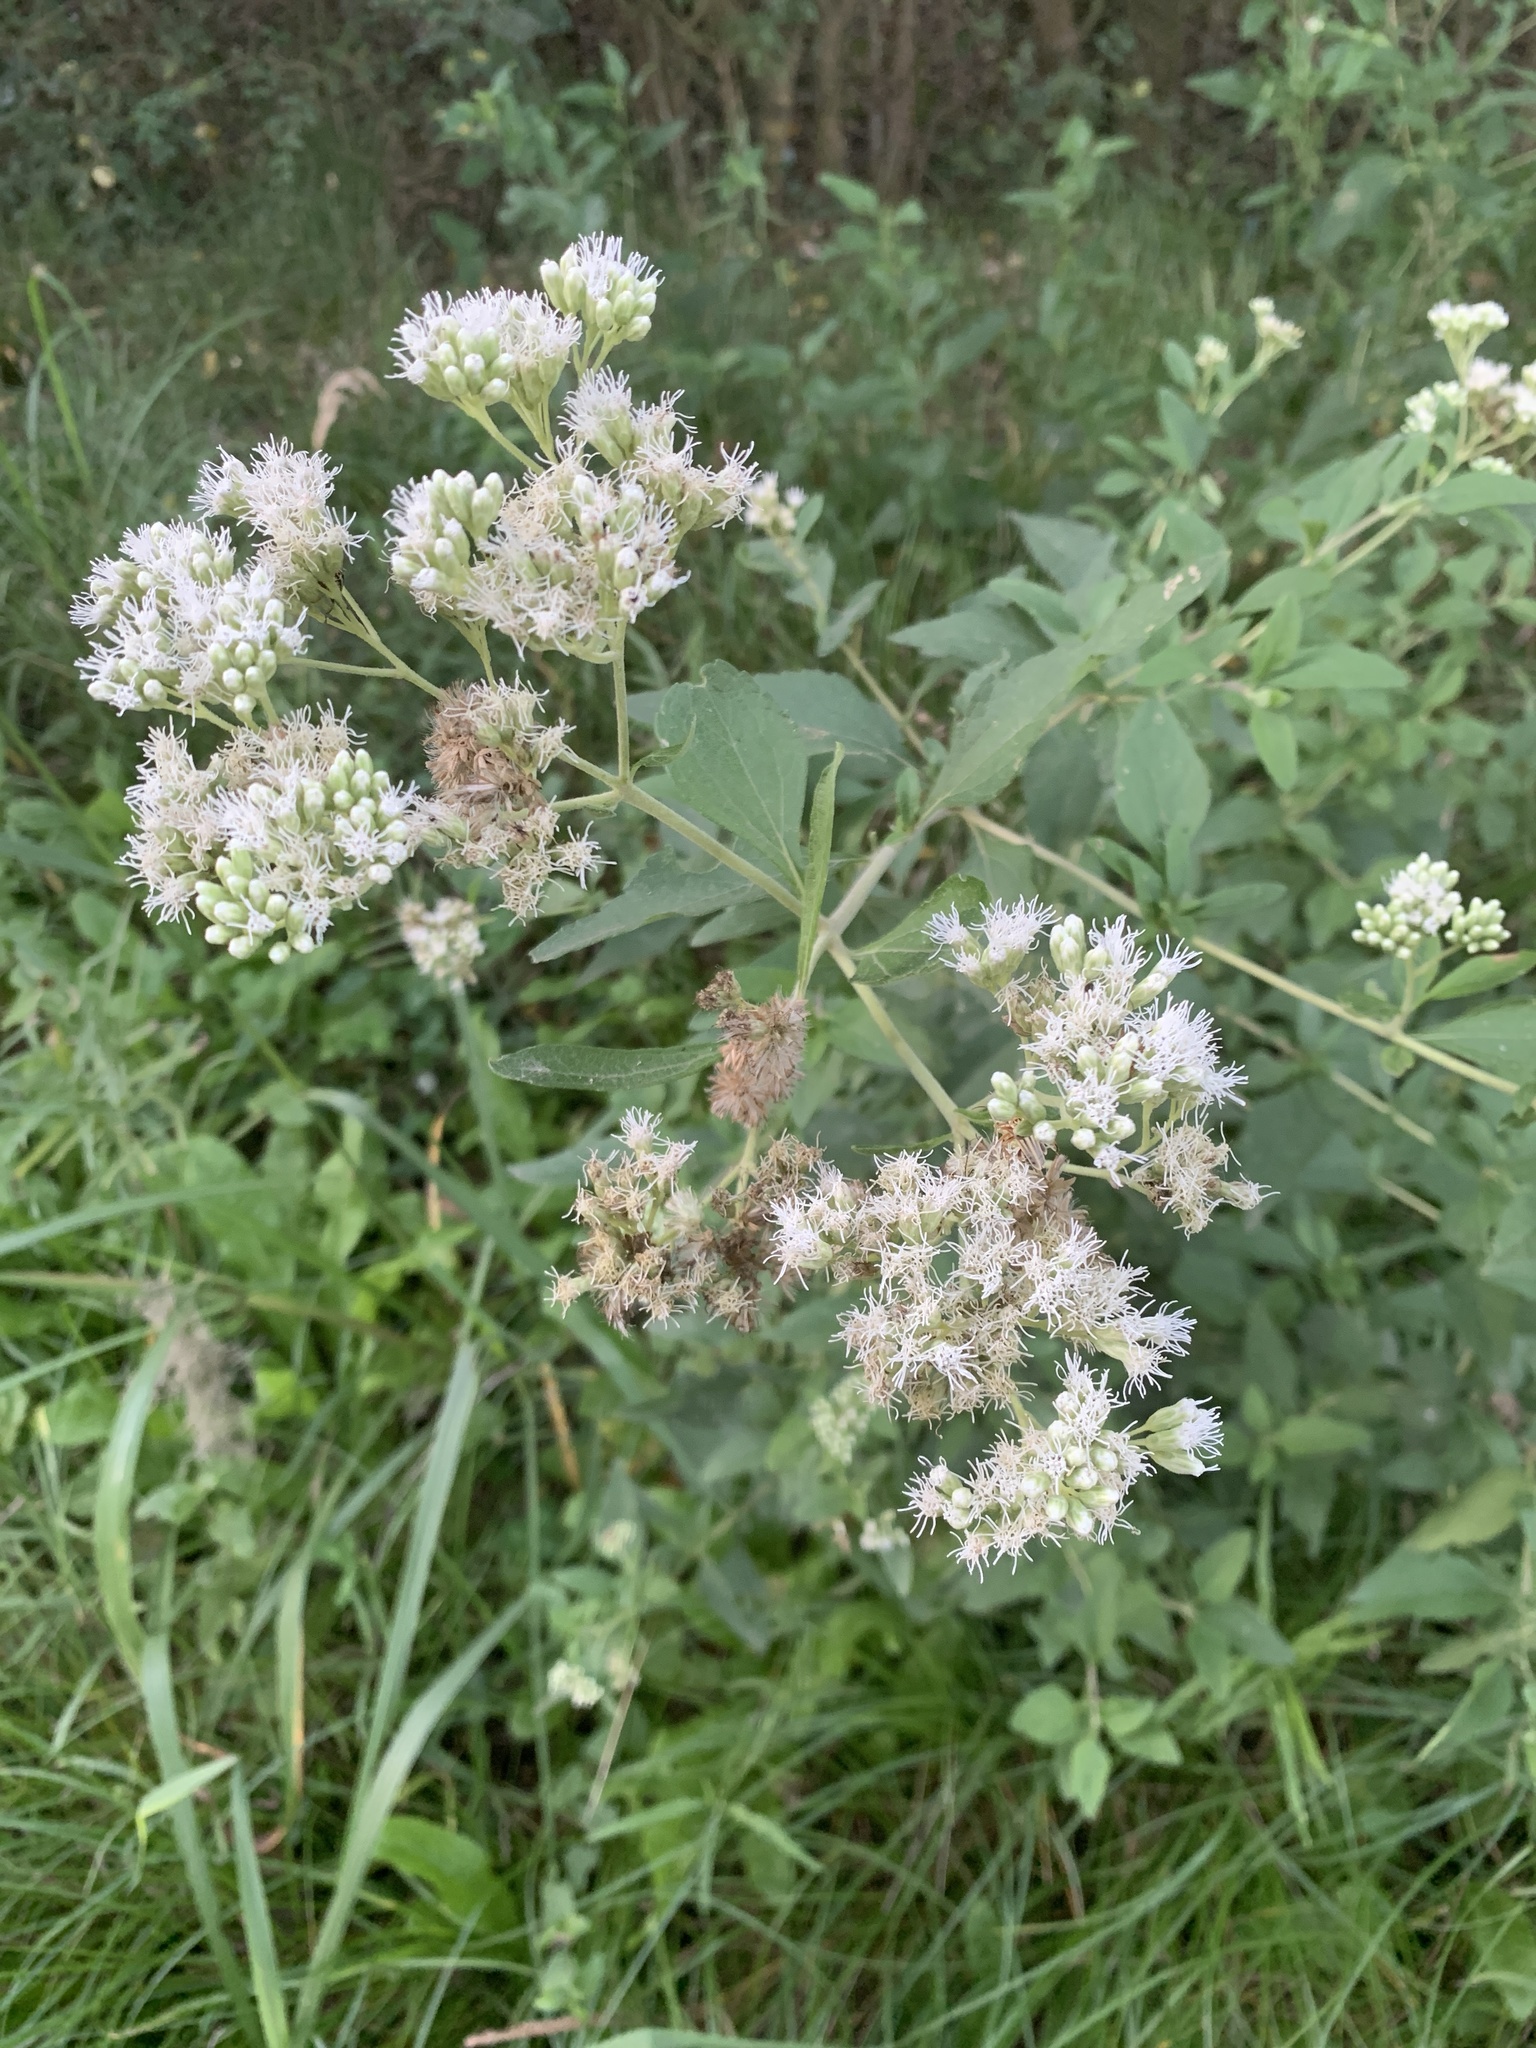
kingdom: Plantae
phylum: Tracheophyta
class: Magnoliopsida
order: Asterales
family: Asteraceae
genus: Austroeupatorium
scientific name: Austroeupatorium inulifolium
